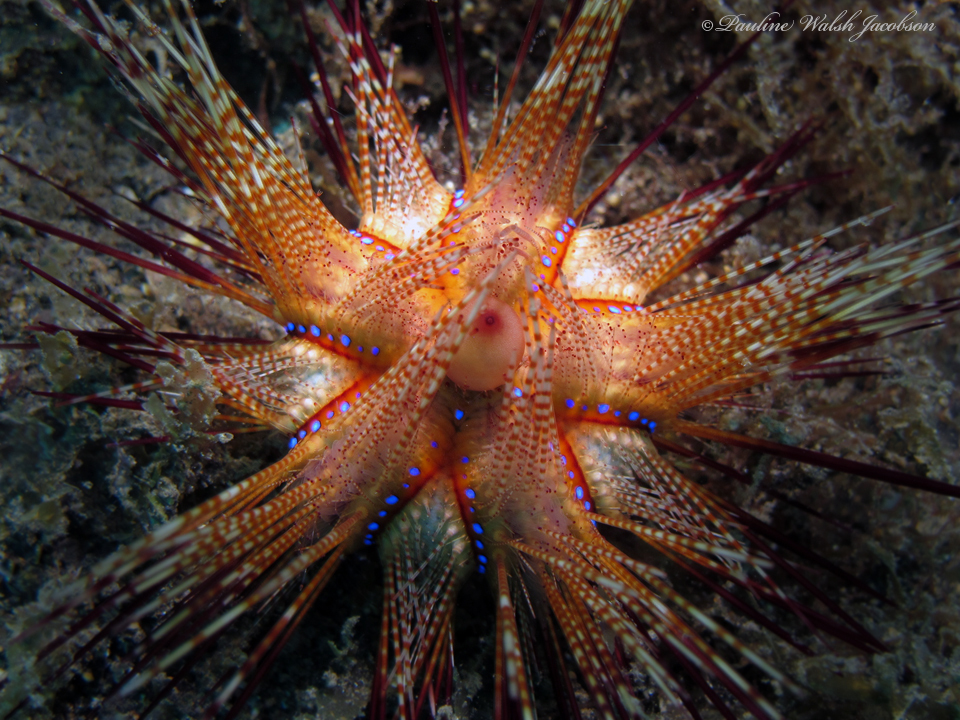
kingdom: Animalia
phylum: Echinodermata
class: Echinoidea
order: Diadematoida
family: Diadematidae
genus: Astropyga
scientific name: Astropyga radiata
